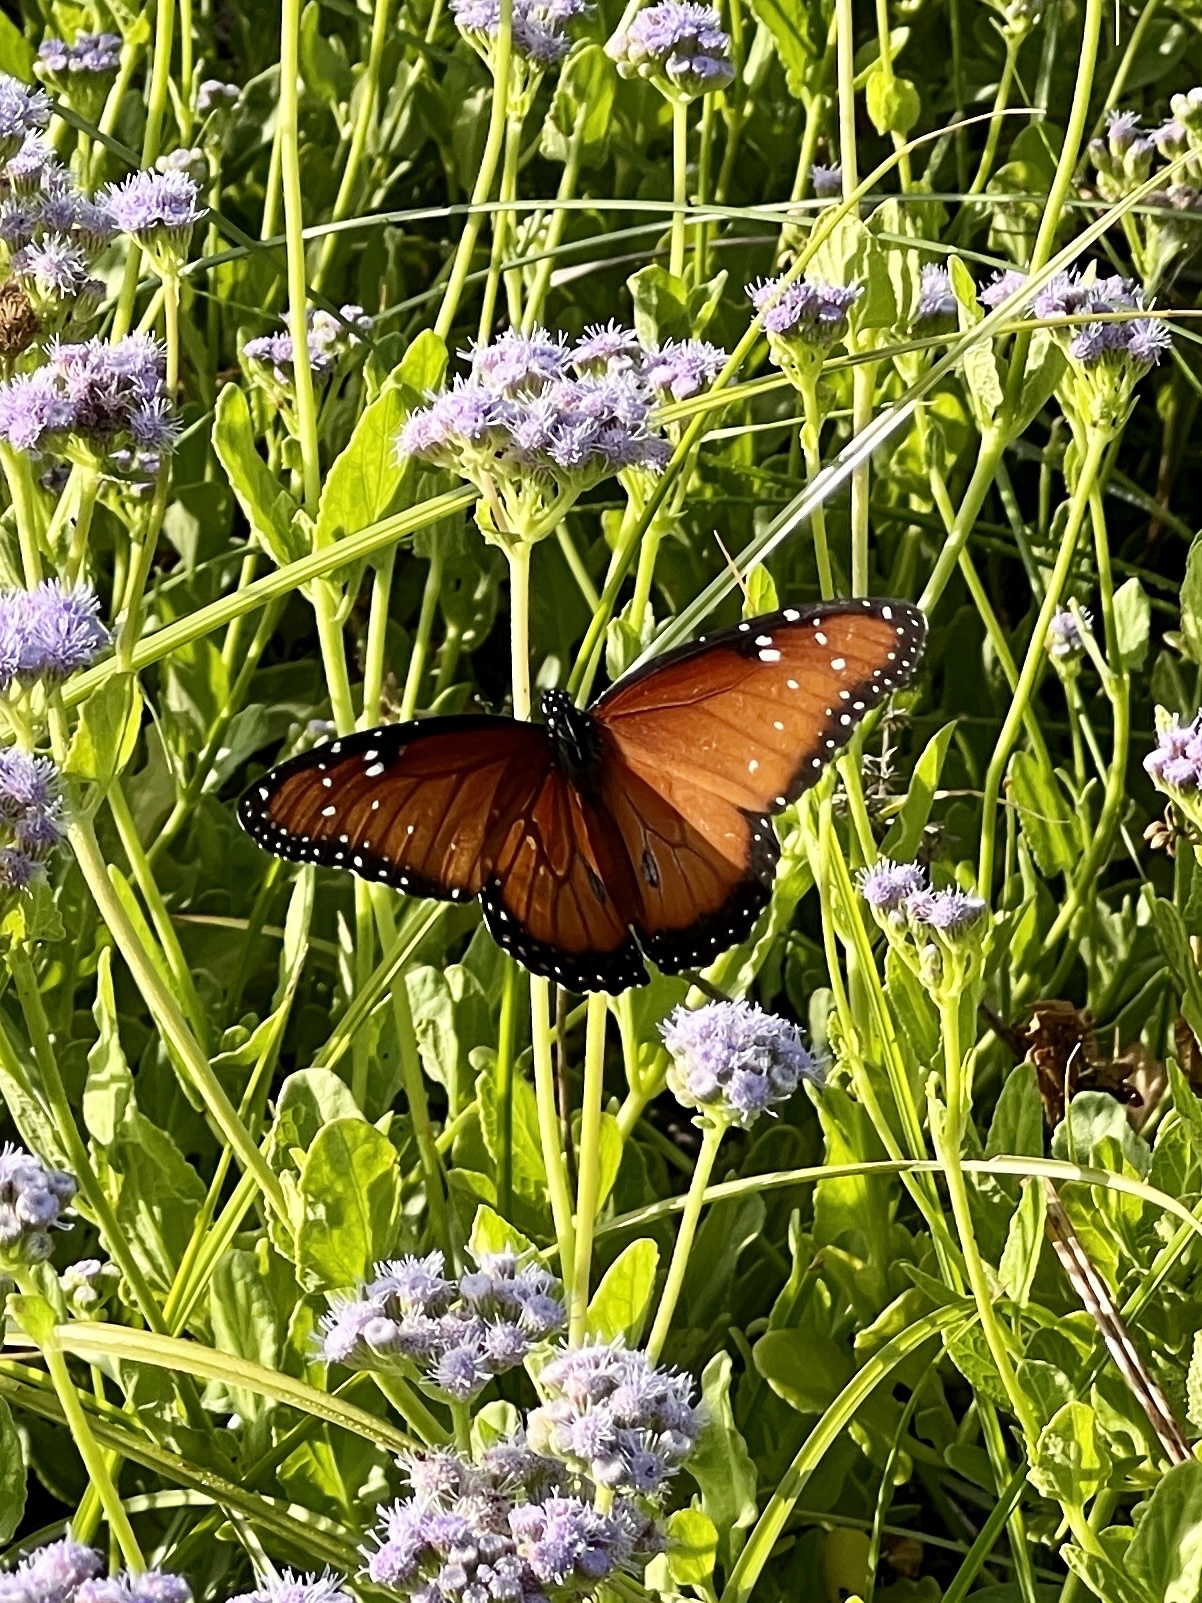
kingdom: Animalia
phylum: Arthropoda
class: Insecta
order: Lepidoptera
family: Nymphalidae
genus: Danaus
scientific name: Danaus gilippus
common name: Queen
